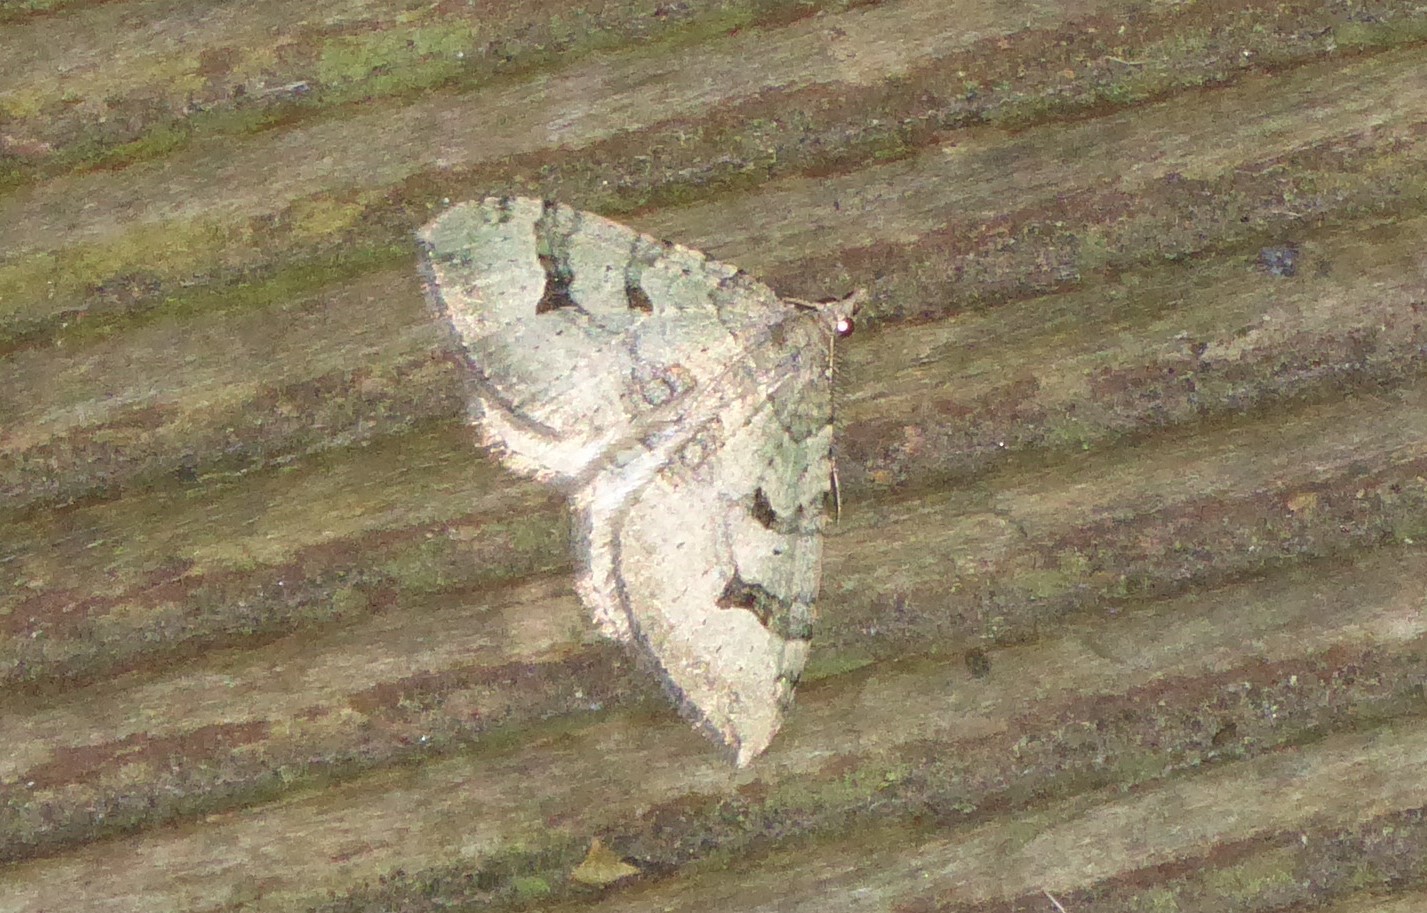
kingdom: Animalia
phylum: Arthropoda
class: Insecta
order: Lepidoptera
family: Geometridae
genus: Xanthorhoe
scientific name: Xanthorhoe semifissata
